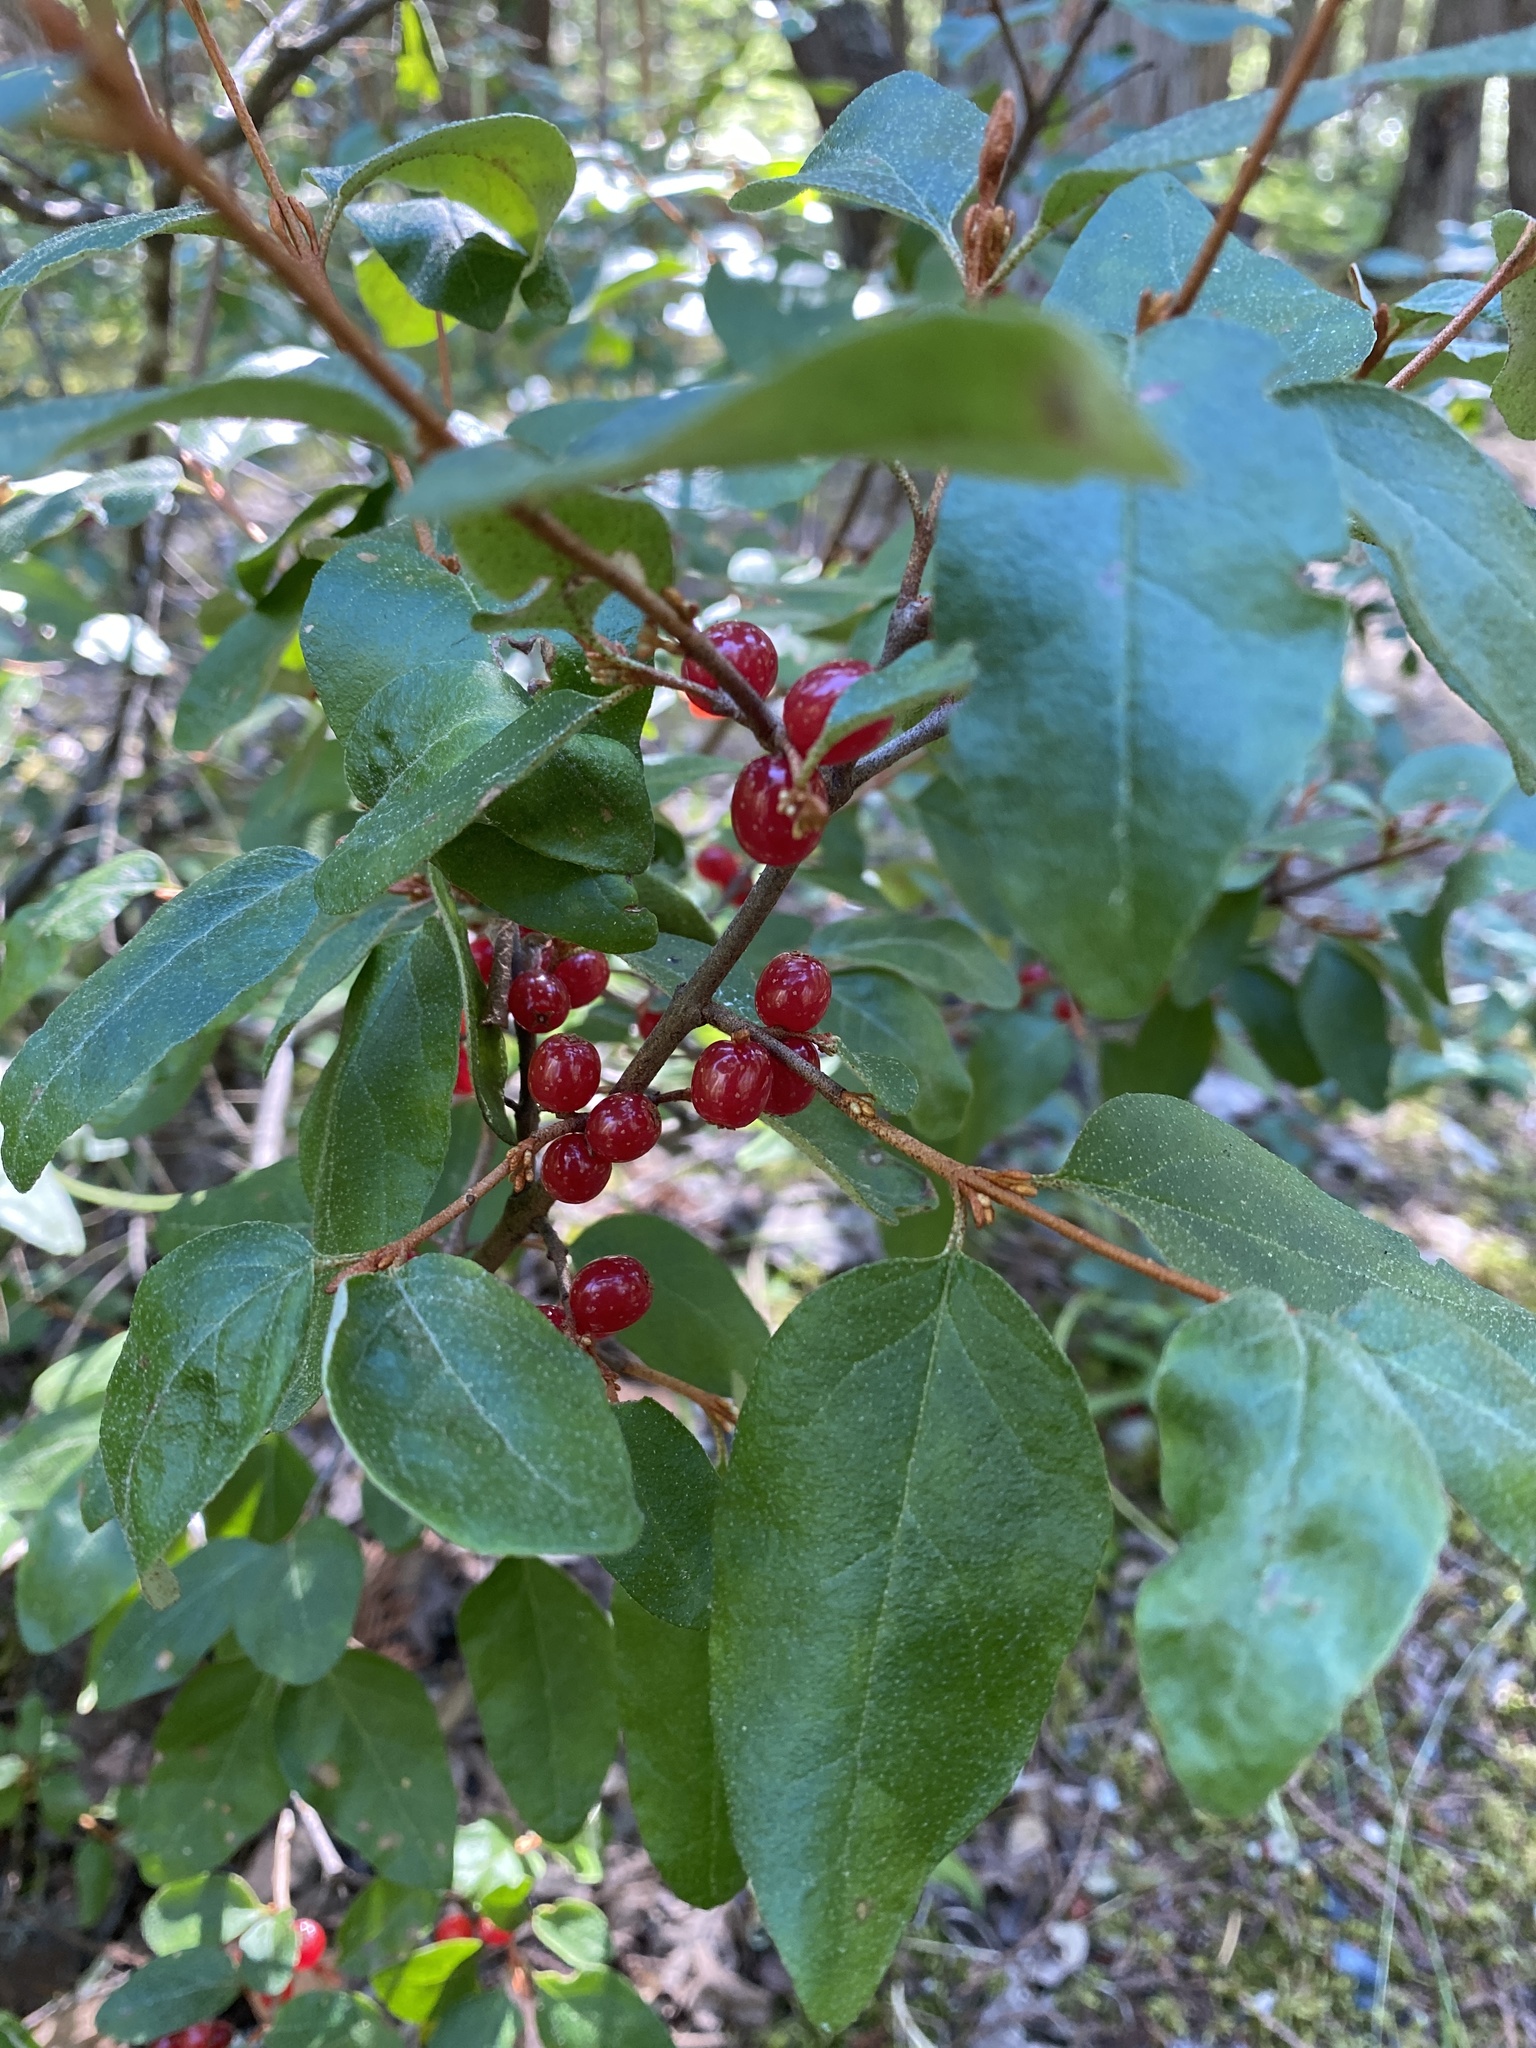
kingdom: Plantae
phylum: Tracheophyta
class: Magnoliopsida
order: Rosales
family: Elaeagnaceae
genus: Shepherdia
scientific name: Shepherdia canadensis
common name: Soapberry
